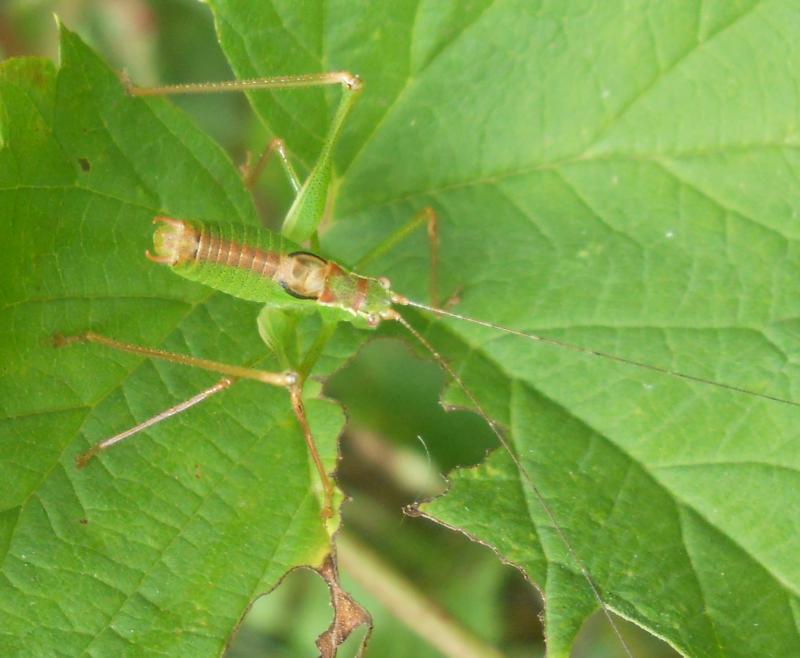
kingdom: Animalia
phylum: Arthropoda
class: Insecta
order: Orthoptera
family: Tettigoniidae
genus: Leptophyes
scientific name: Leptophyes punctatissima
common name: Speckled bush-cricket
